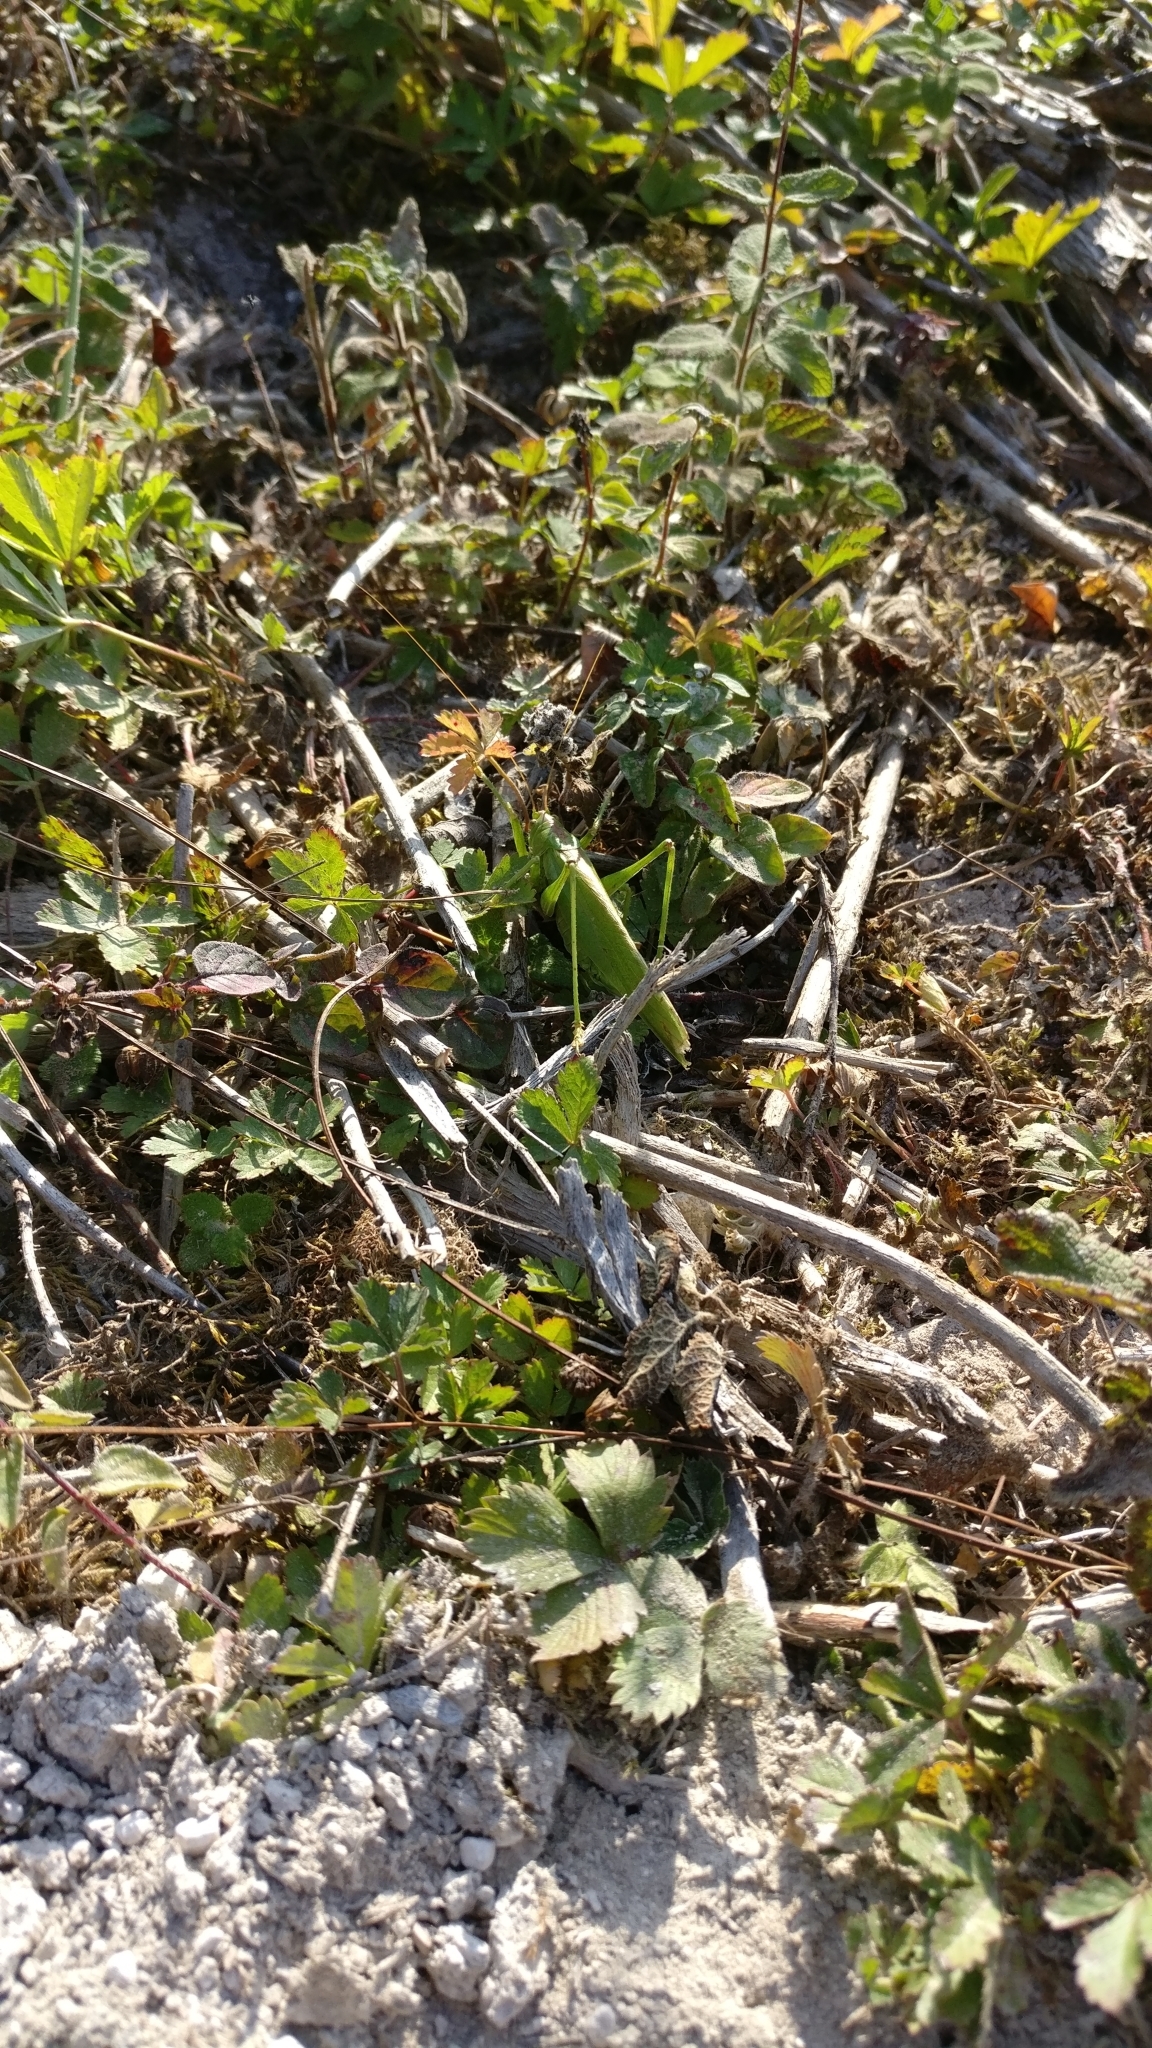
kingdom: Animalia
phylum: Arthropoda
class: Insecta
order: Orthoptera
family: Tettigoniidae
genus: Tettigonia
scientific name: Tettigonia viridissima
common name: Great green bush-cricket
